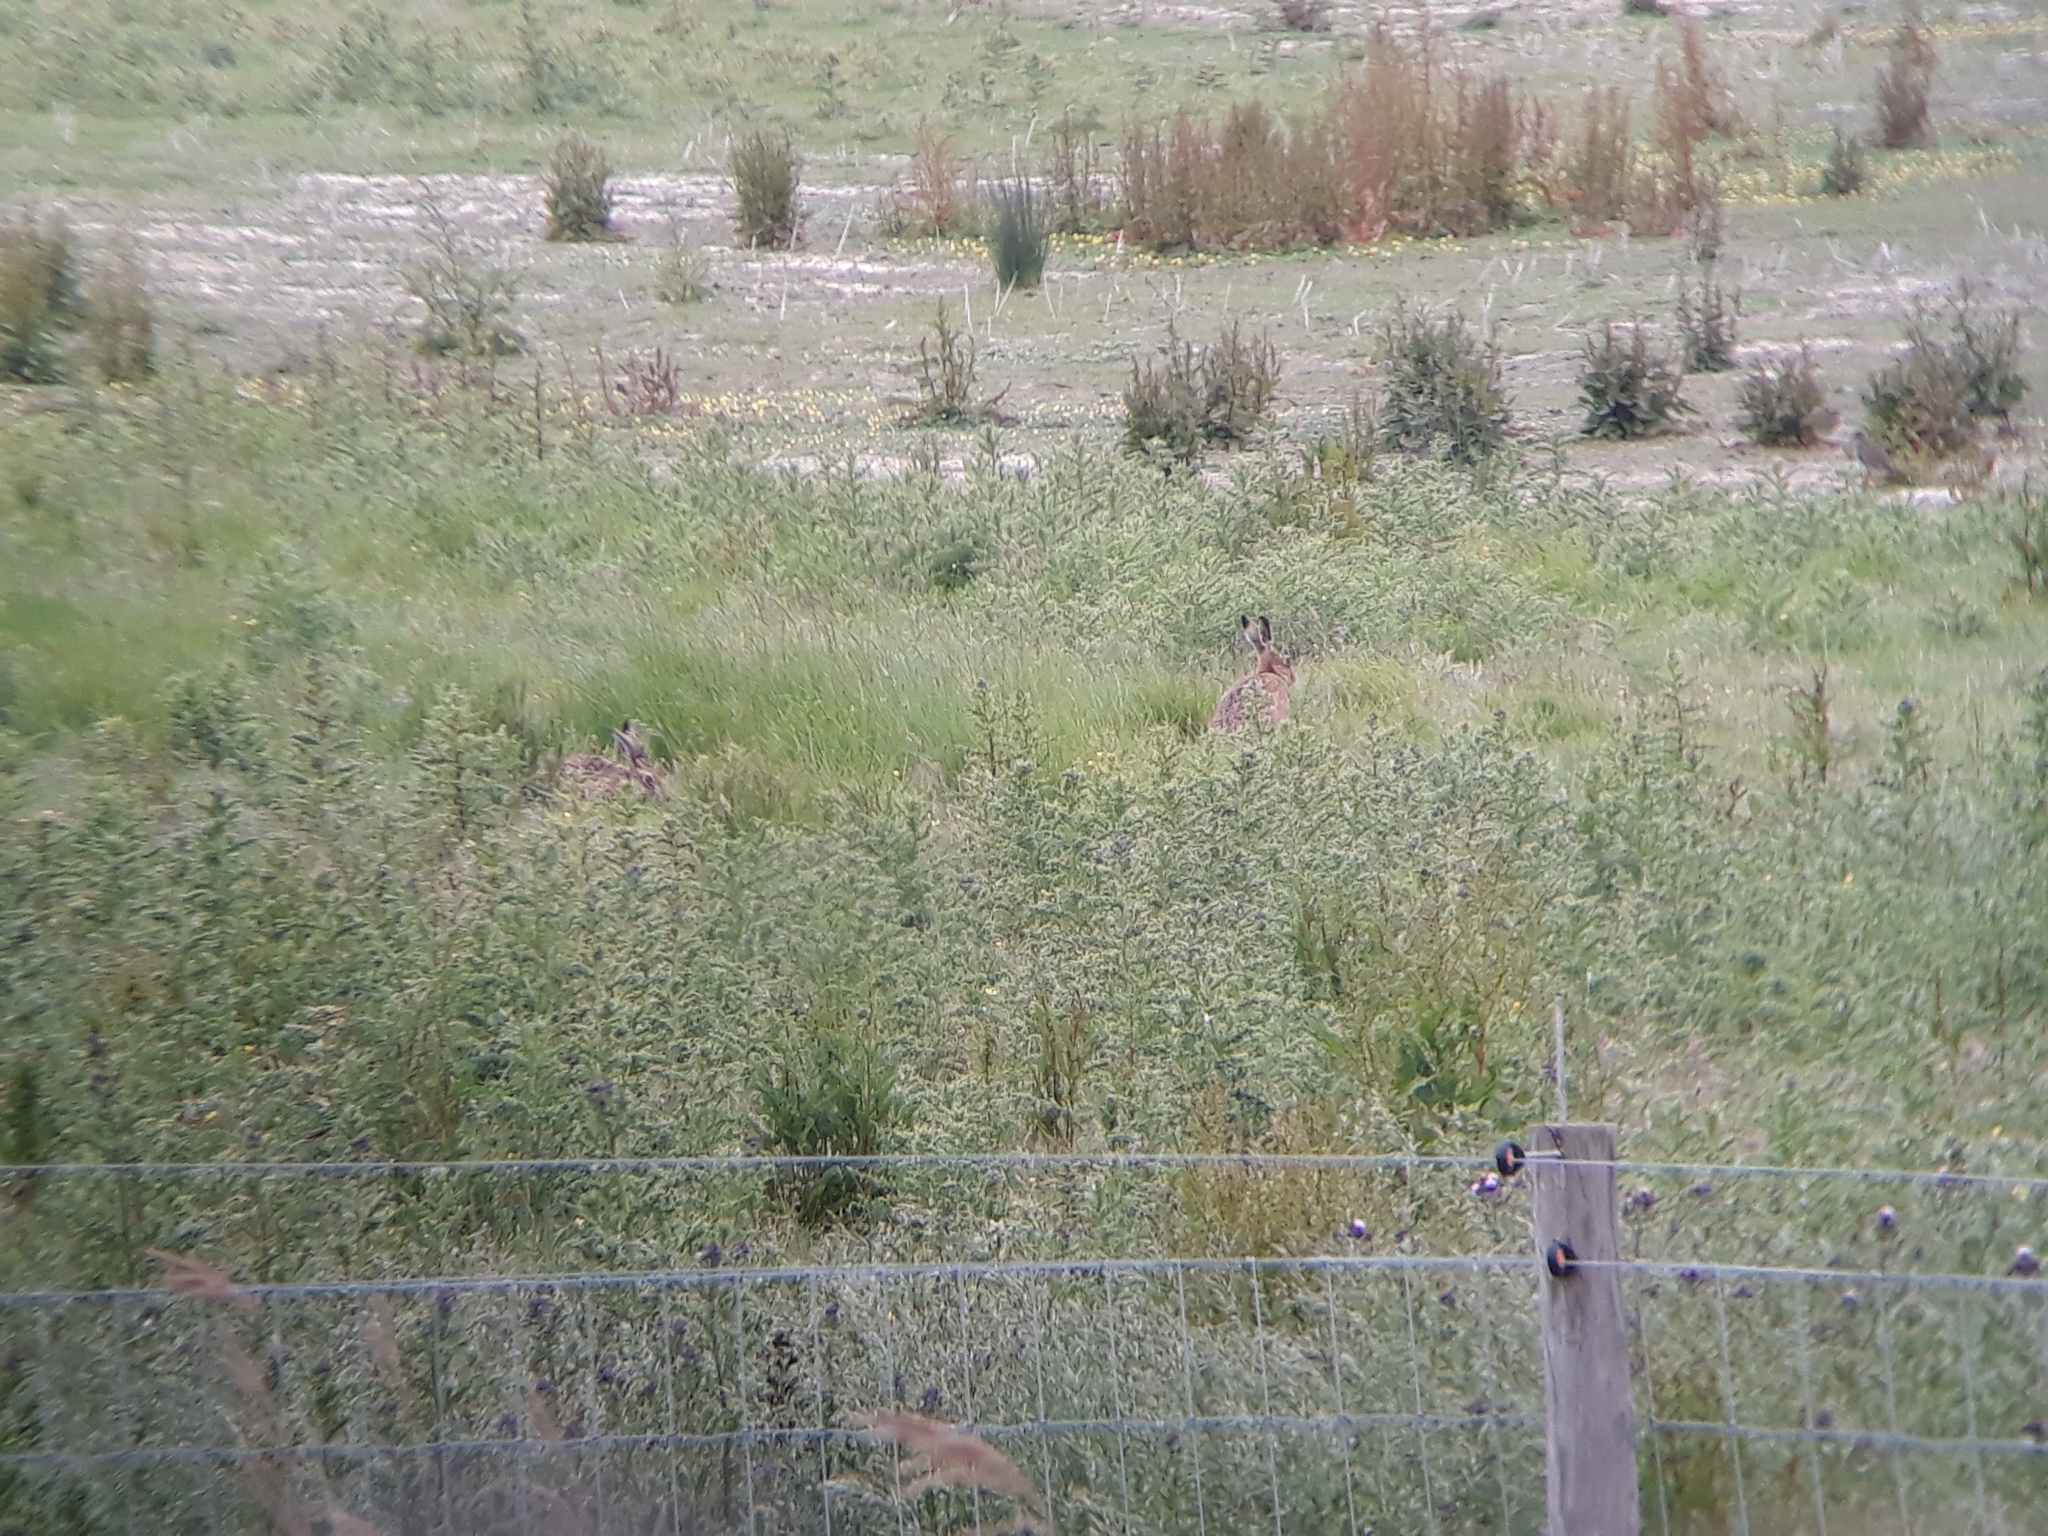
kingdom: Animalia
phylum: Chordata
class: Mammalia
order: Lagomorpha
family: Leporidae
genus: Lepus
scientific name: Lepus europaeus
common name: European hare
